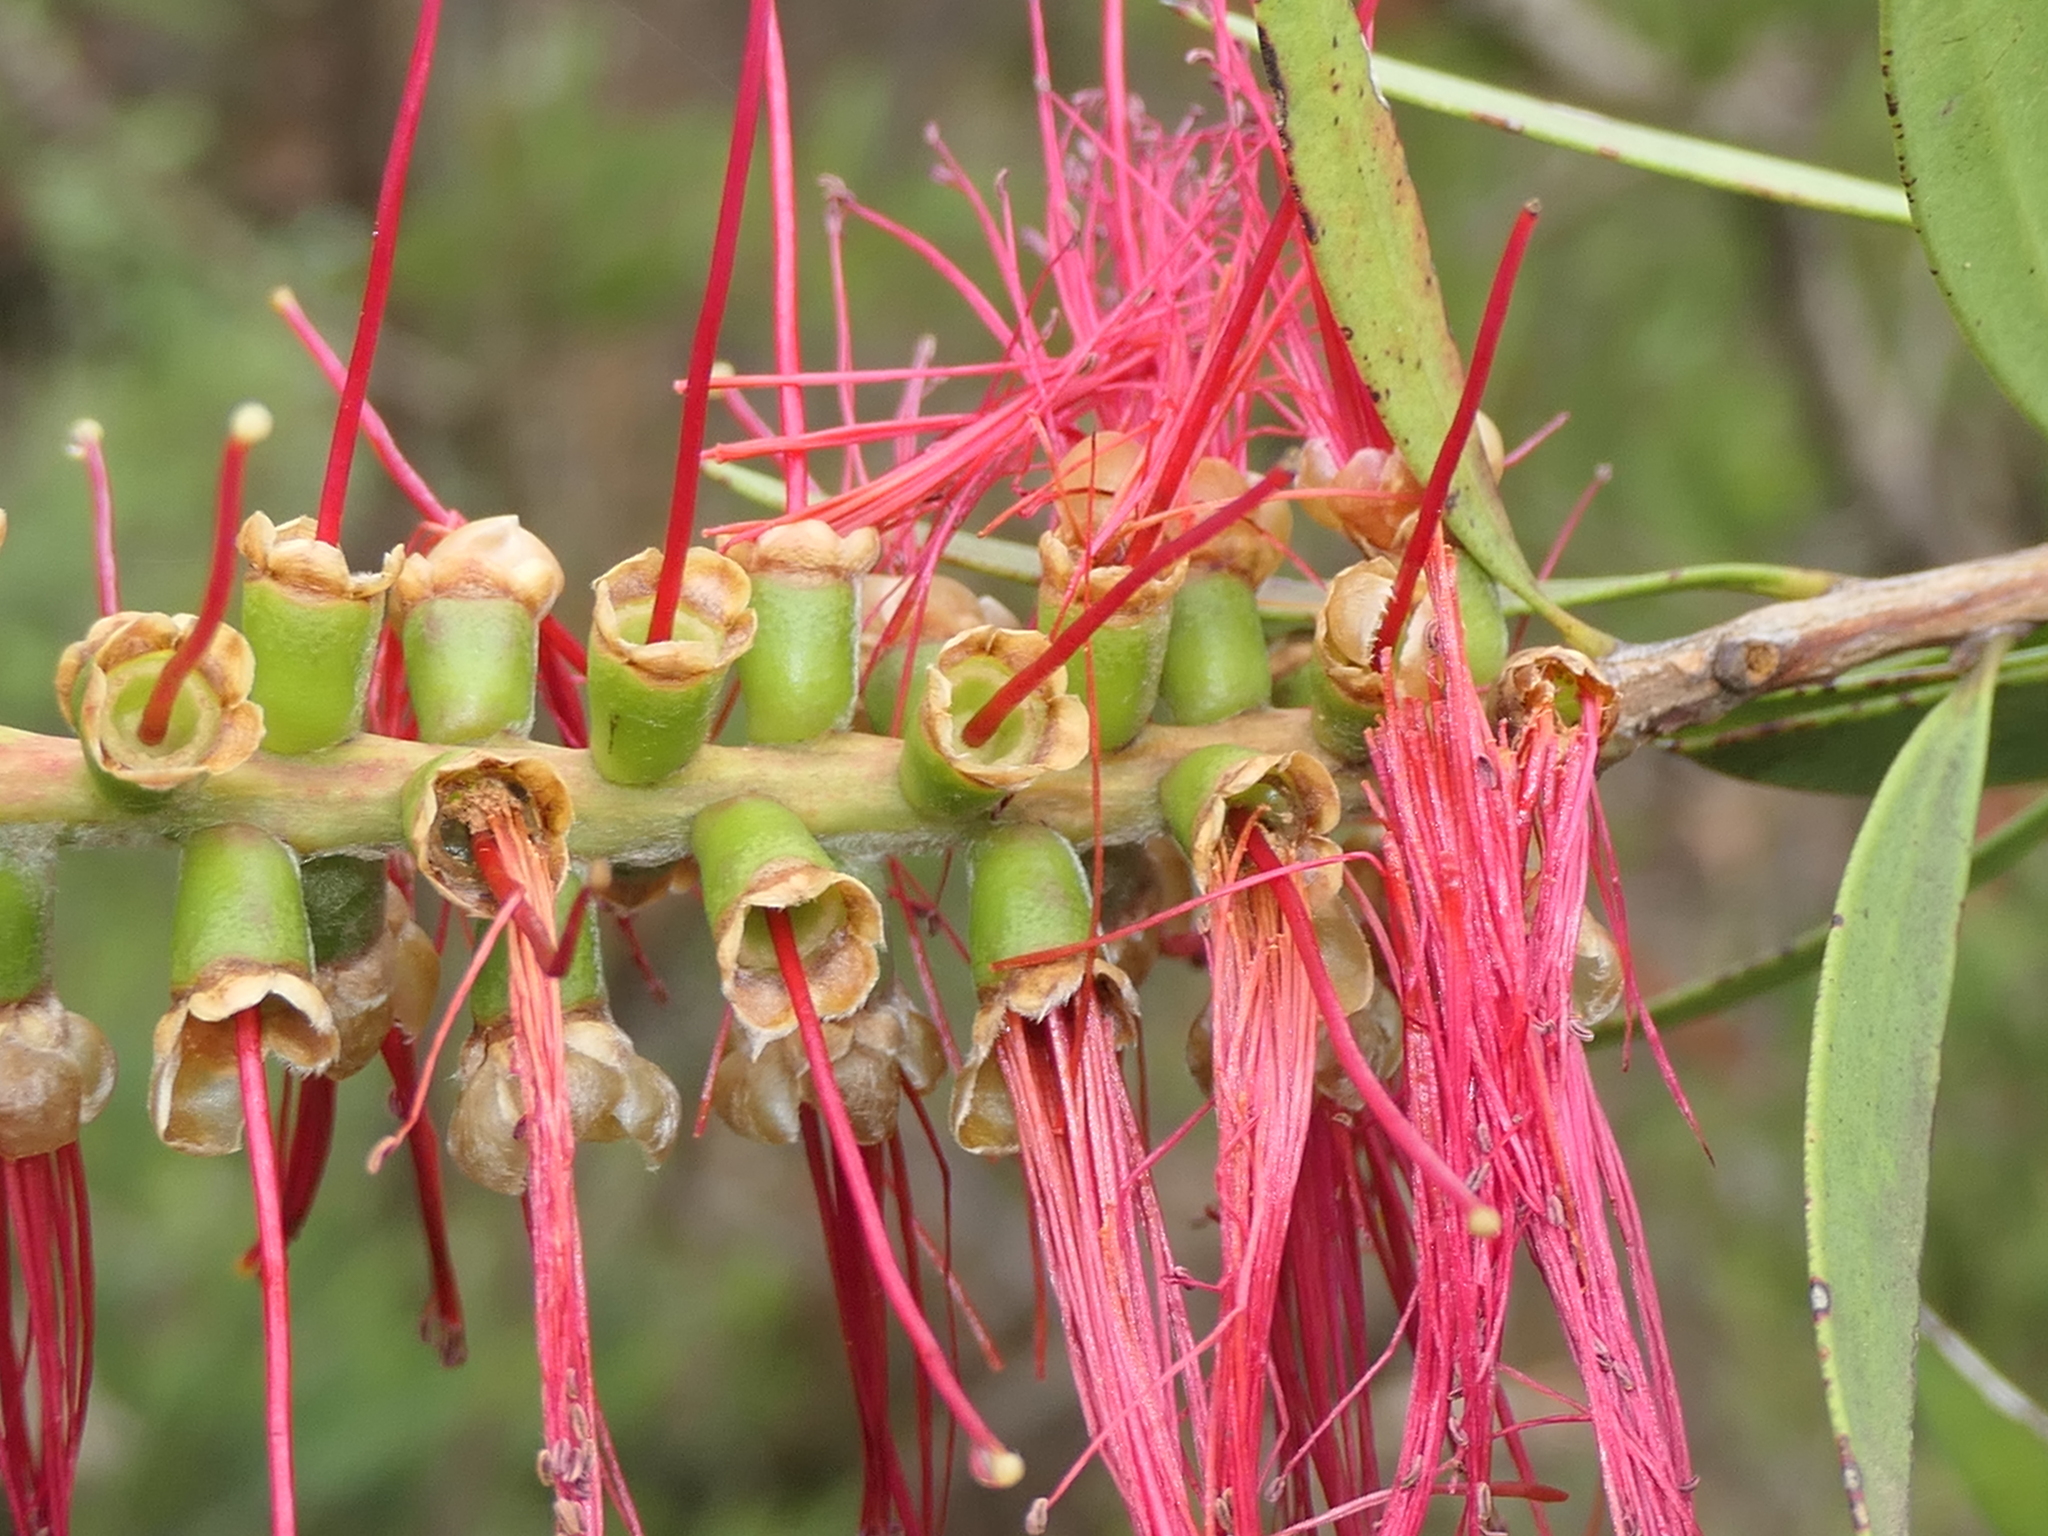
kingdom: Plantae
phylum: Tracheophyta
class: Magnoliopsida
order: Myrtales
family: Myrtaceae
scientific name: Myrtaceae
